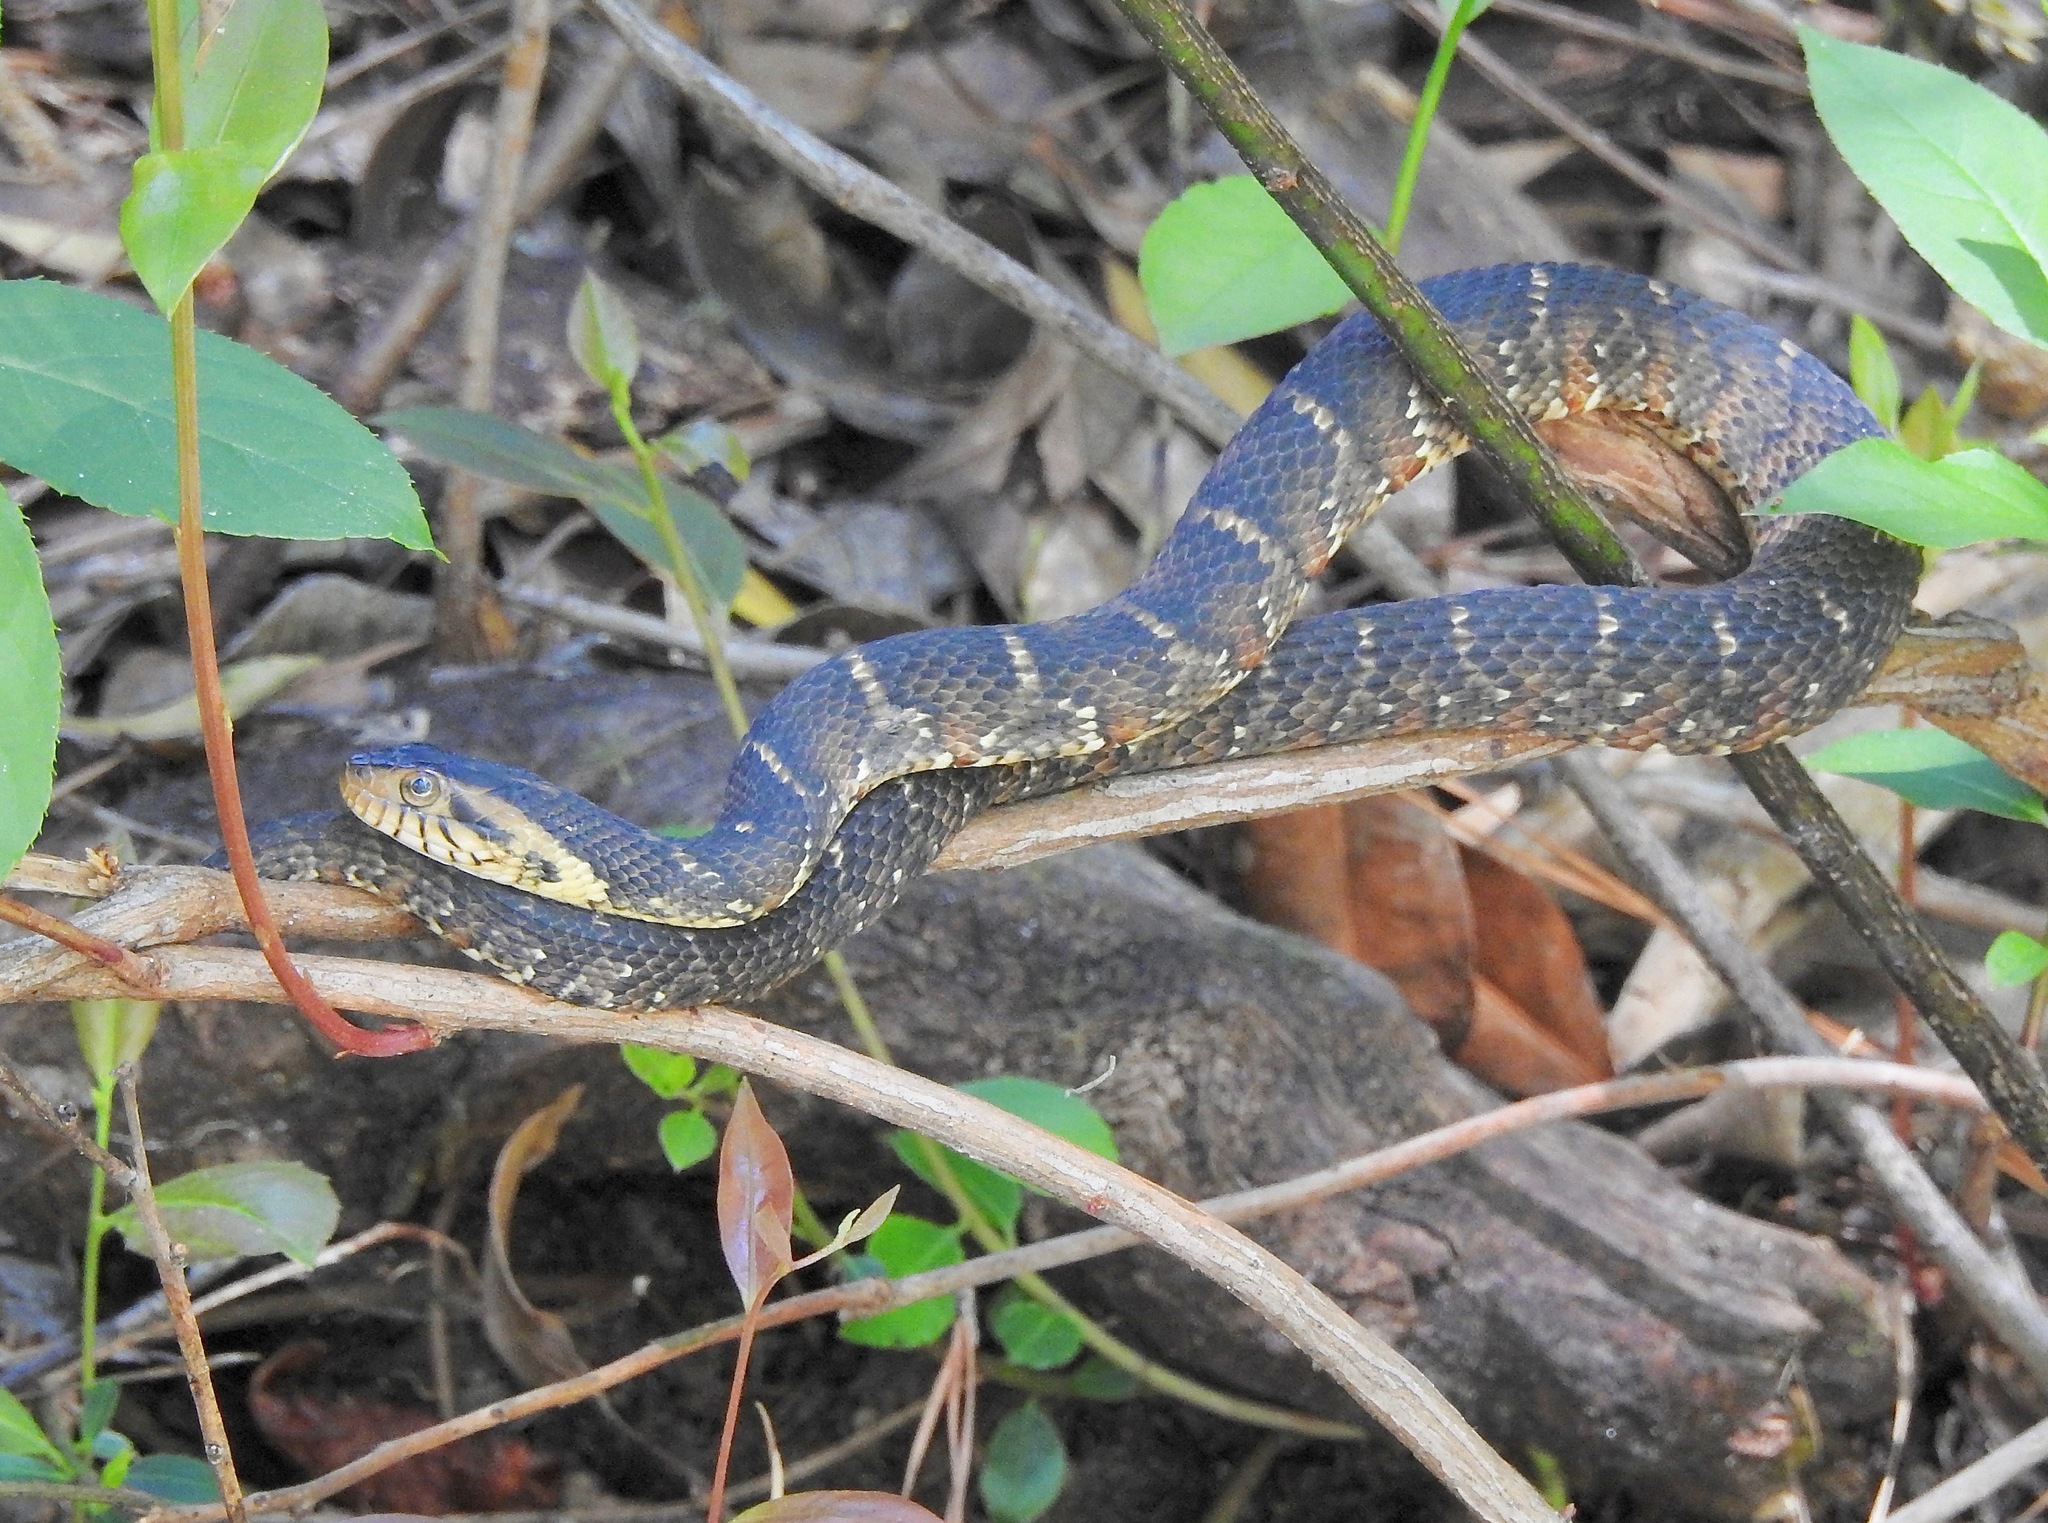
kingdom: Animalia
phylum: Chordata
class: Squamata
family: Colubridae
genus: Nerodia
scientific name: Nerodia fasciata
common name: Southern water snake
